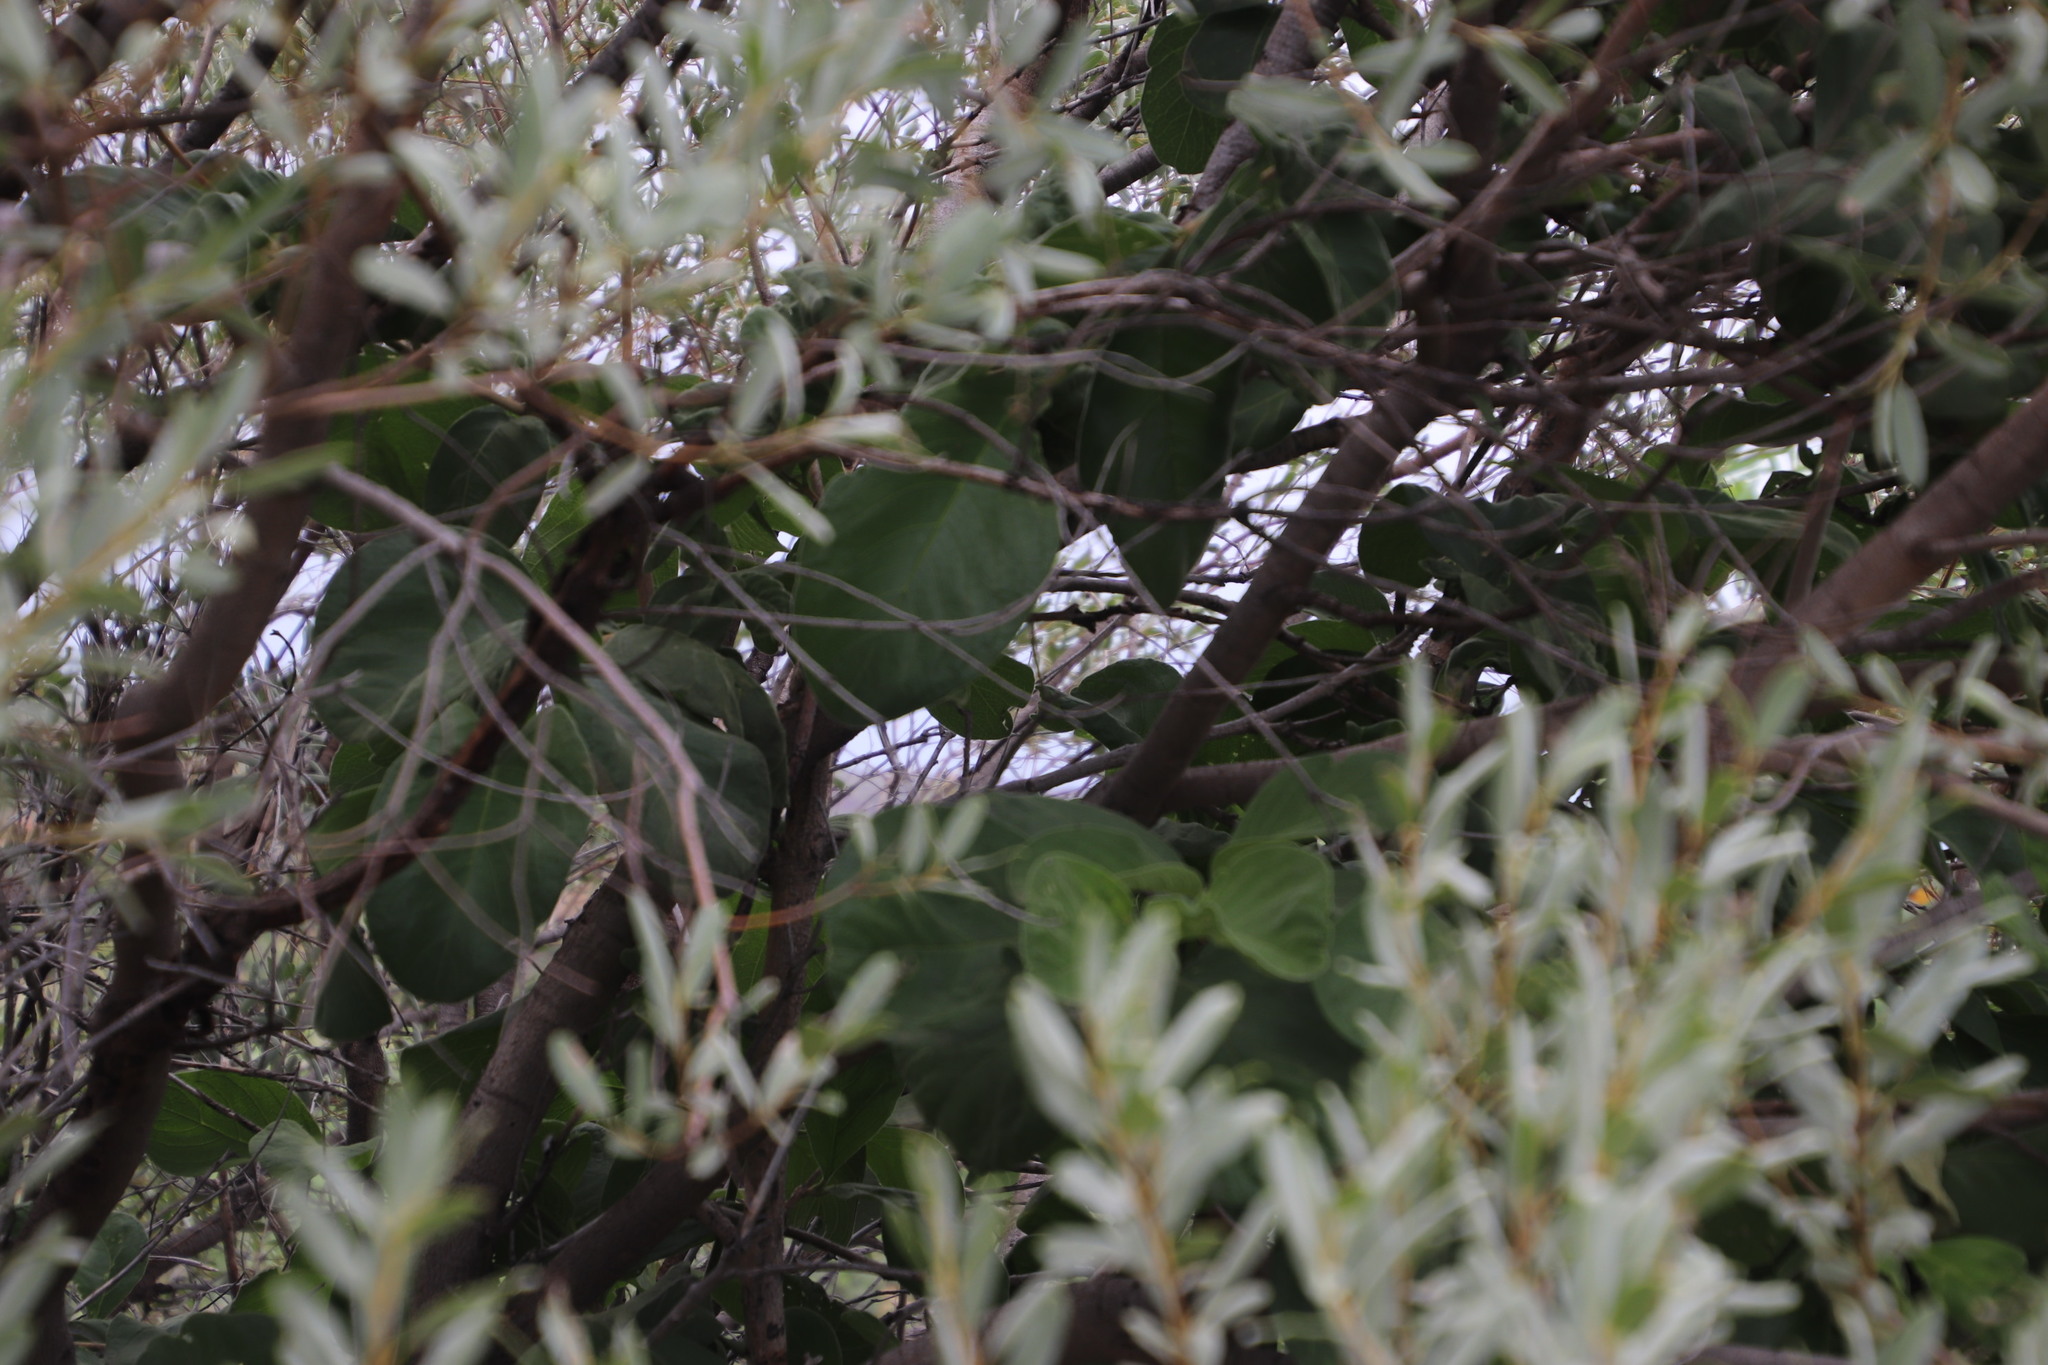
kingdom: Plantae
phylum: Tracheophyta
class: Magnoliopsida
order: Gentianales
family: Rubiaceae
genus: Vangueria
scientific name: Vangueria infausta
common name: Medlar
